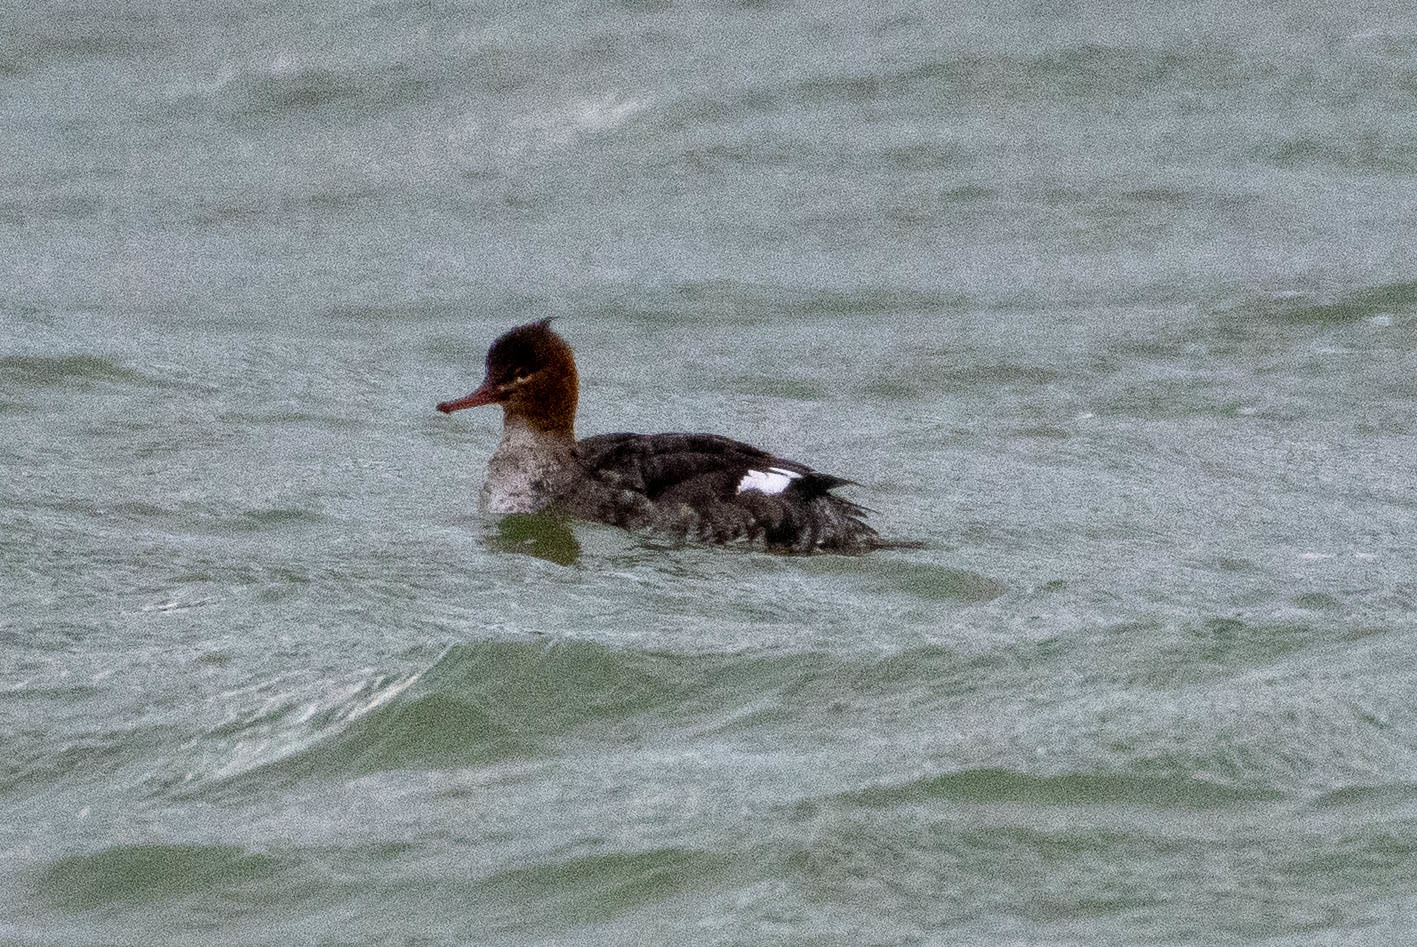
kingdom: Animalia
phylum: Chordata
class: Aves
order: Anseriformes
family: Anatidae
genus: Mergus
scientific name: Mergus serrator
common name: Red-breasted merganser
